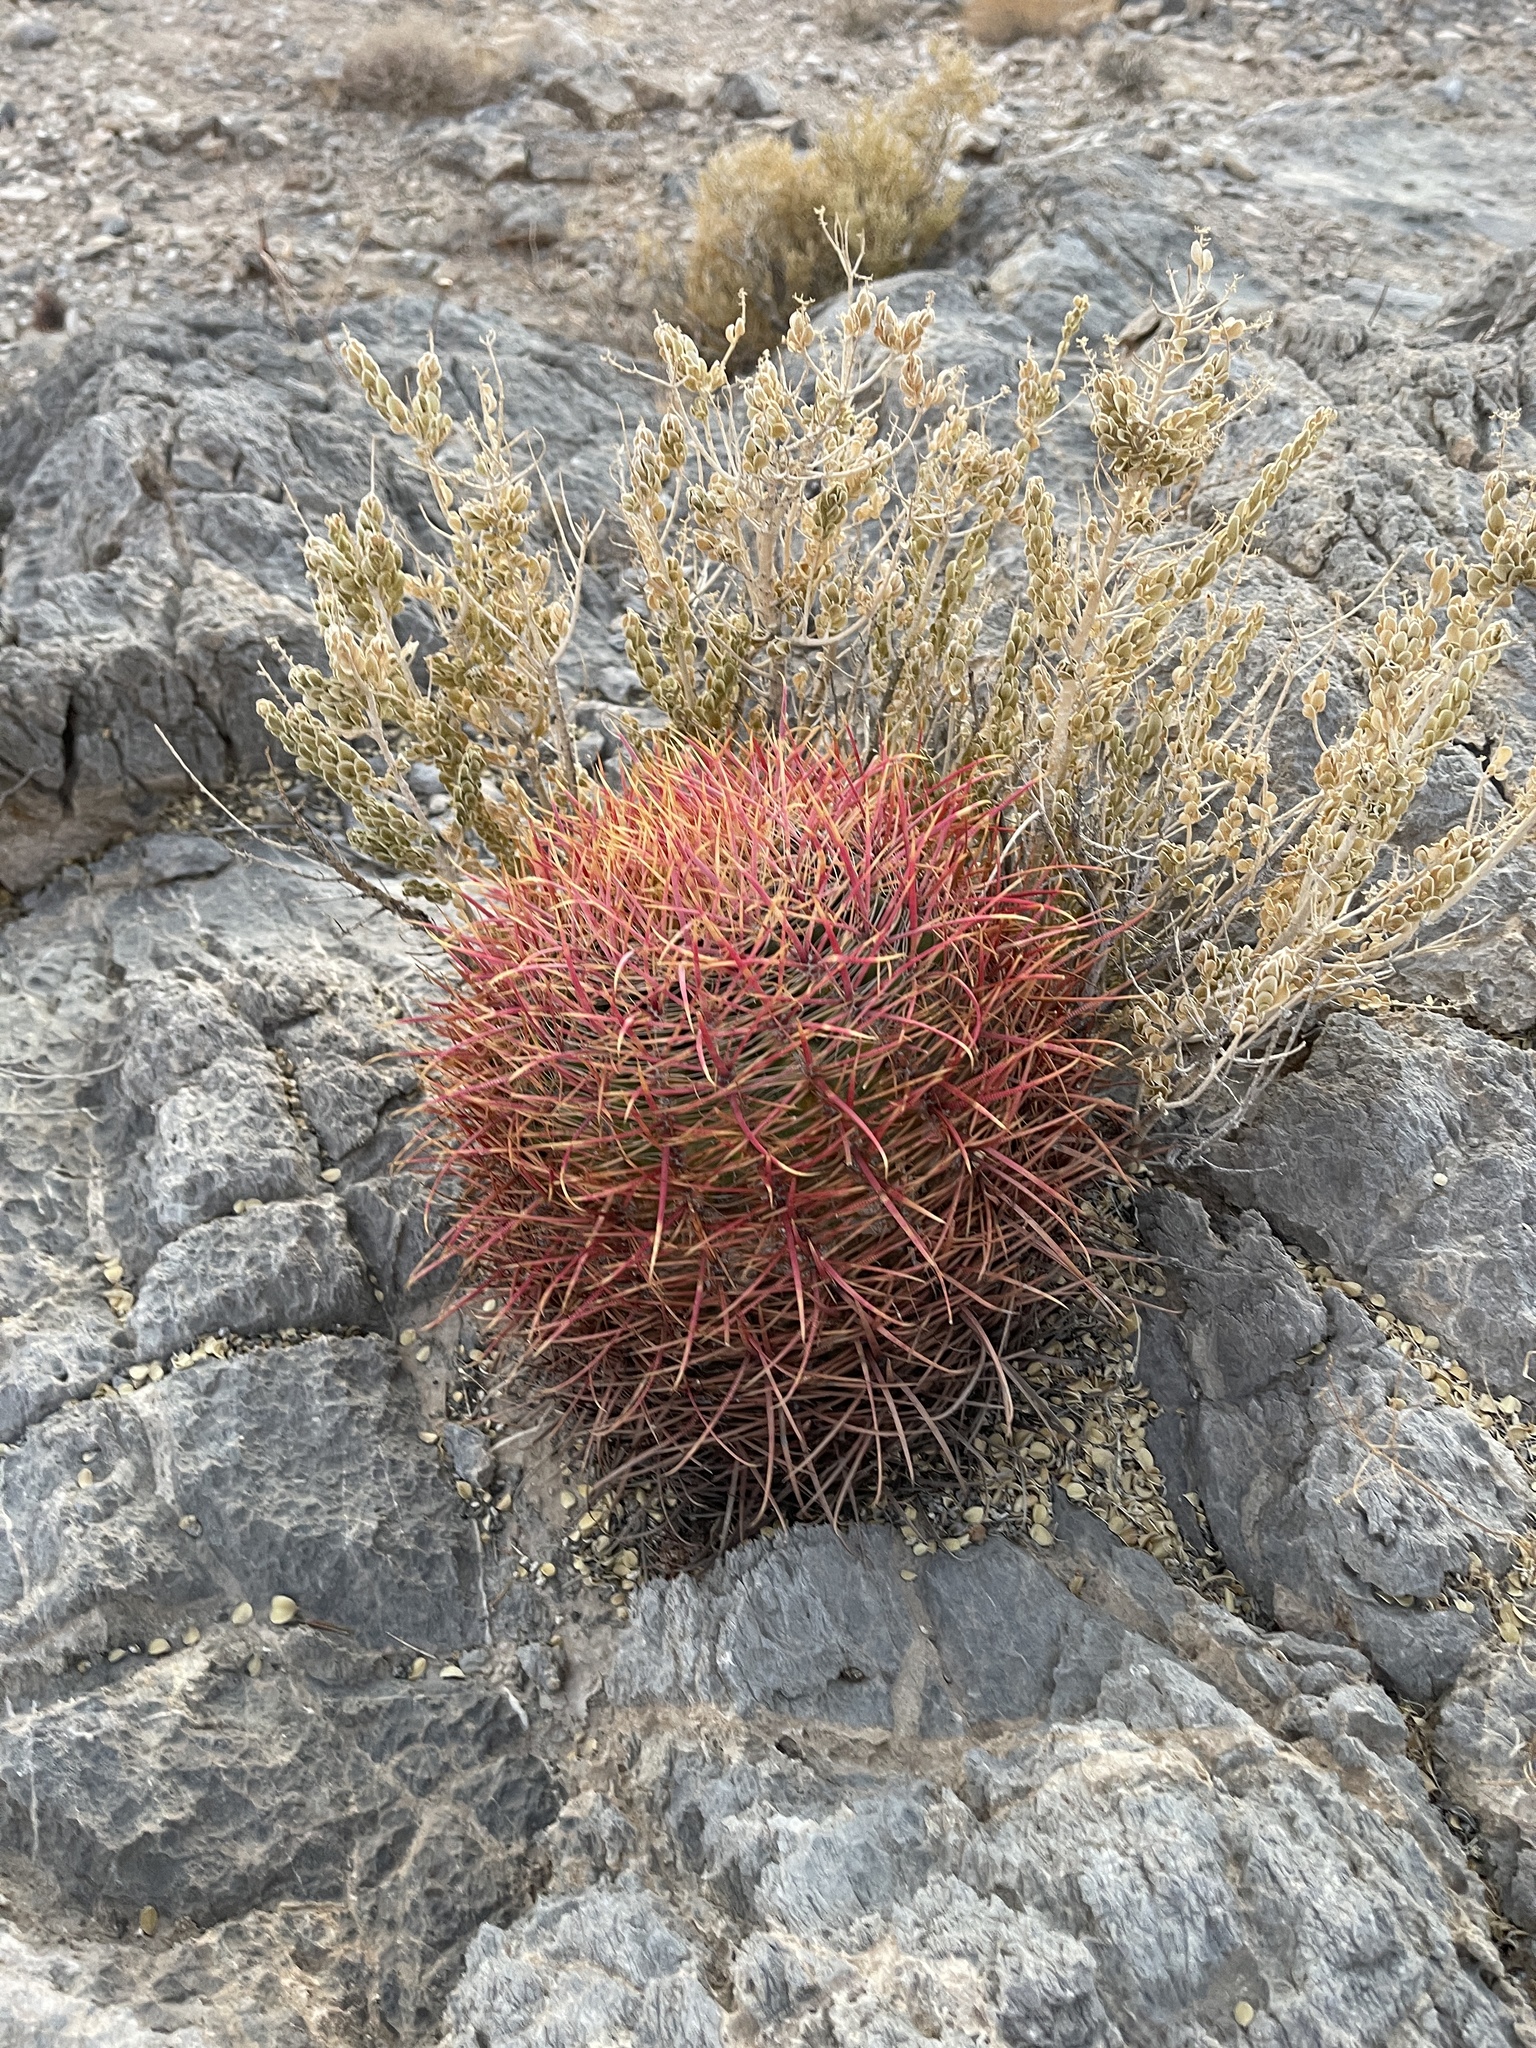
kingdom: Plantae
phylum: Tracheophyta
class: Magnoliopsida
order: Caryophyllales
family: Cactaceae
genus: Ferocactus
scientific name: Ferocactus cylindraceus
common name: California barrel cactus
